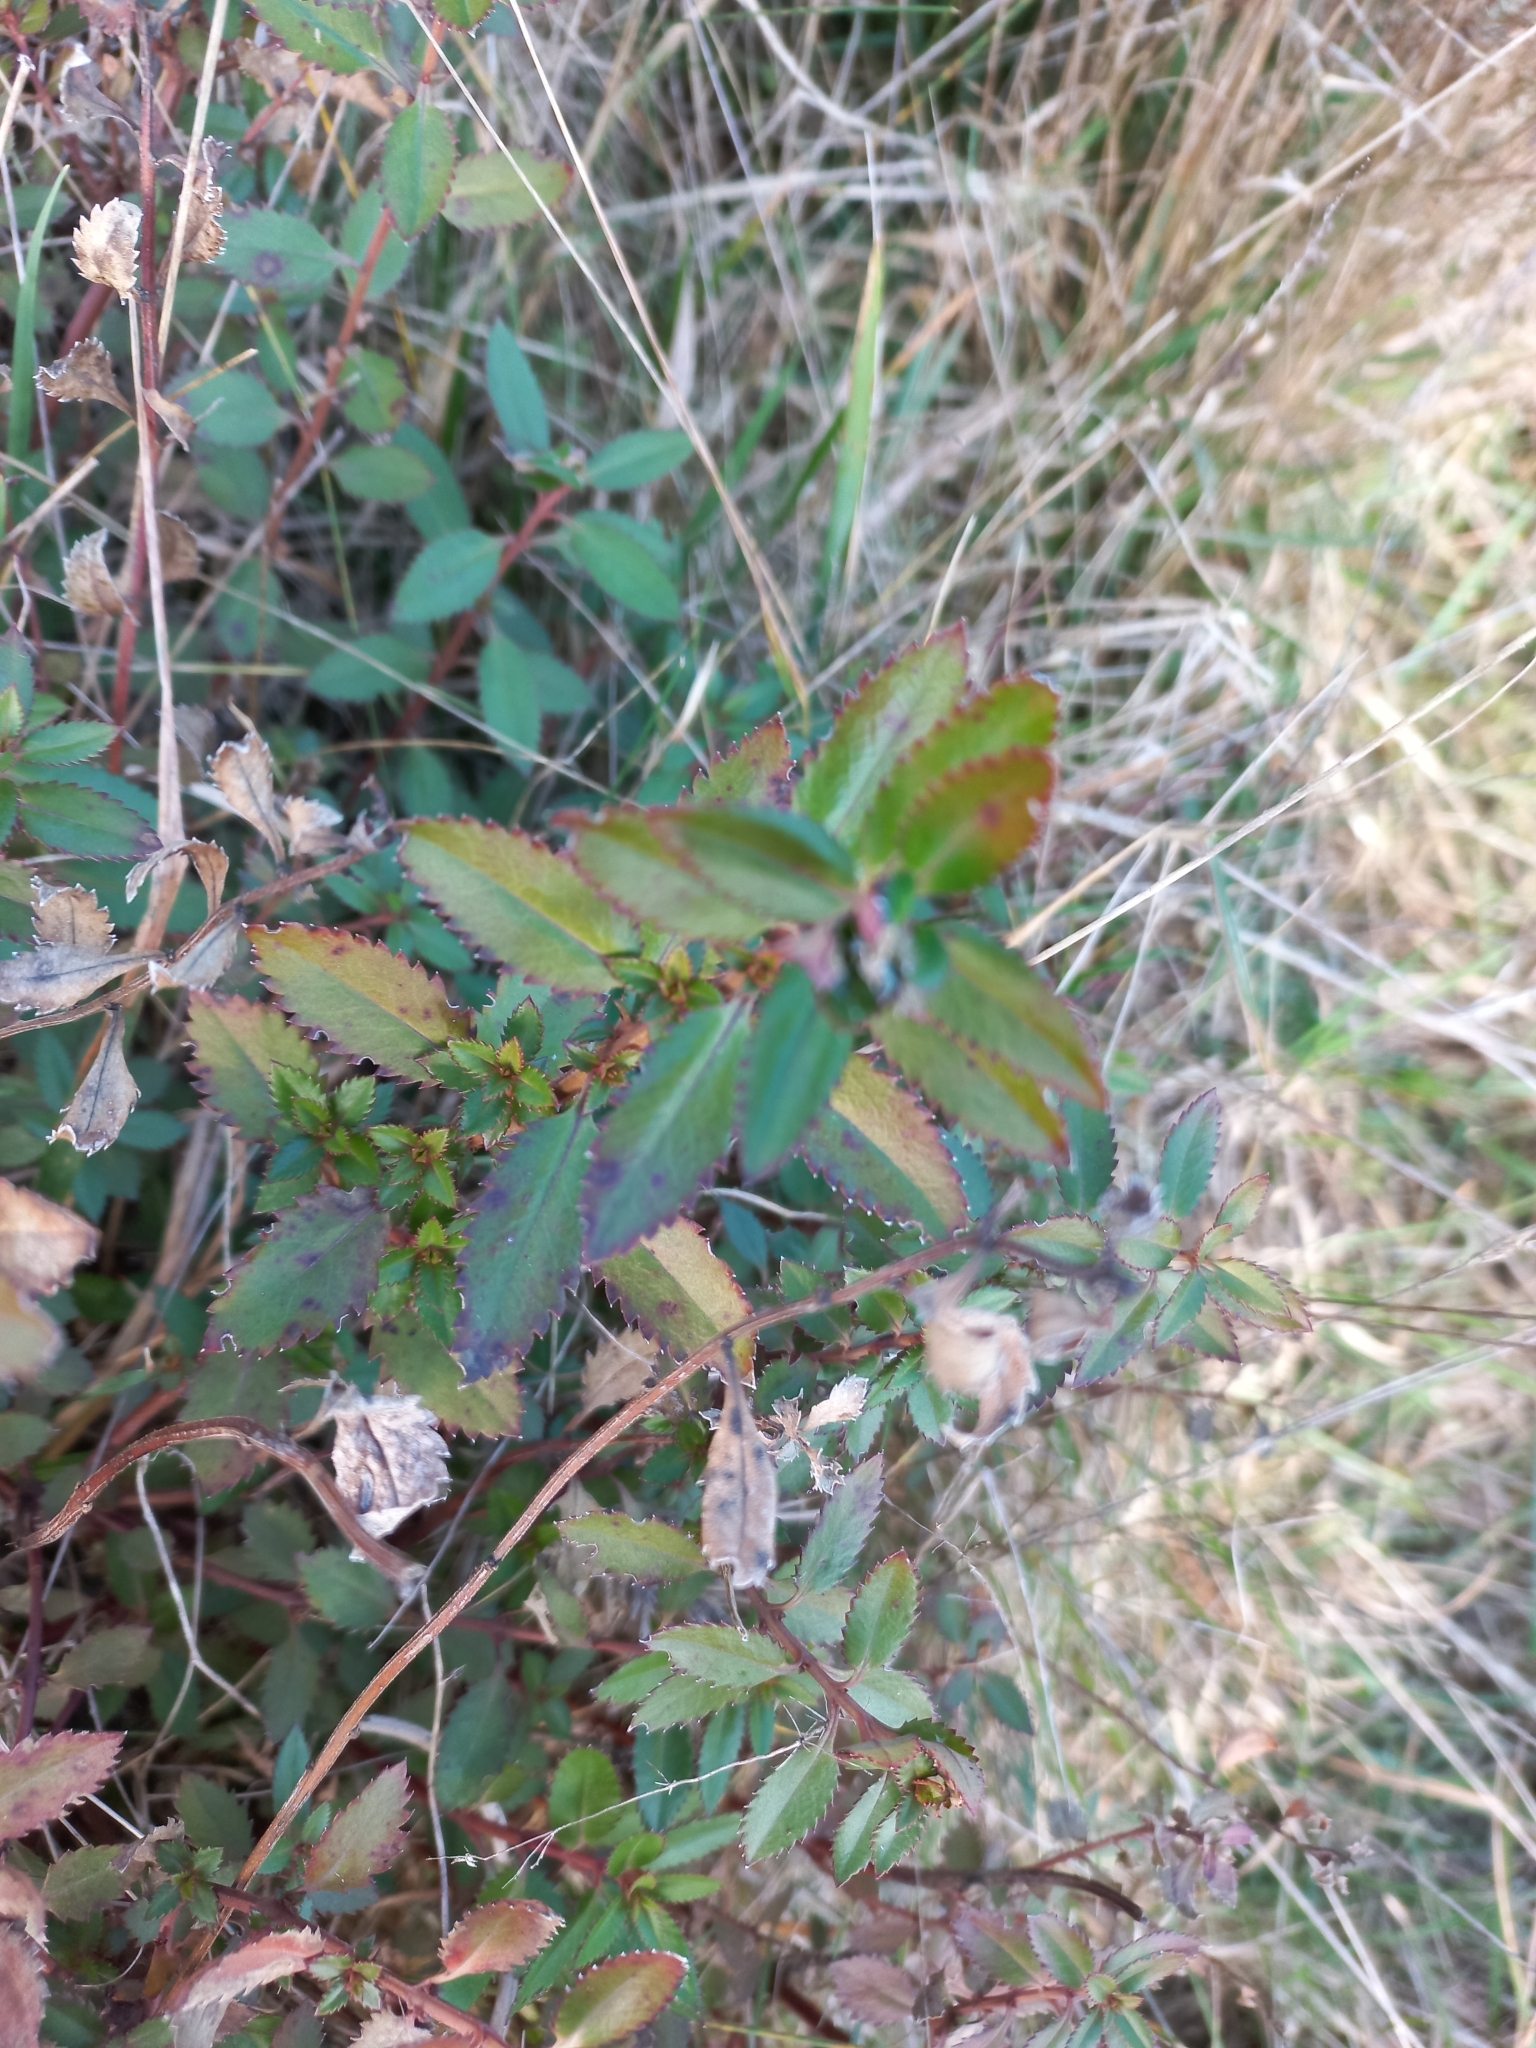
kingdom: Plantae
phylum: Tracheophyta
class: Magnoliopsida
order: Saxifragales
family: Haloragaceae
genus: Haloragis
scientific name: Haloragis erecta
